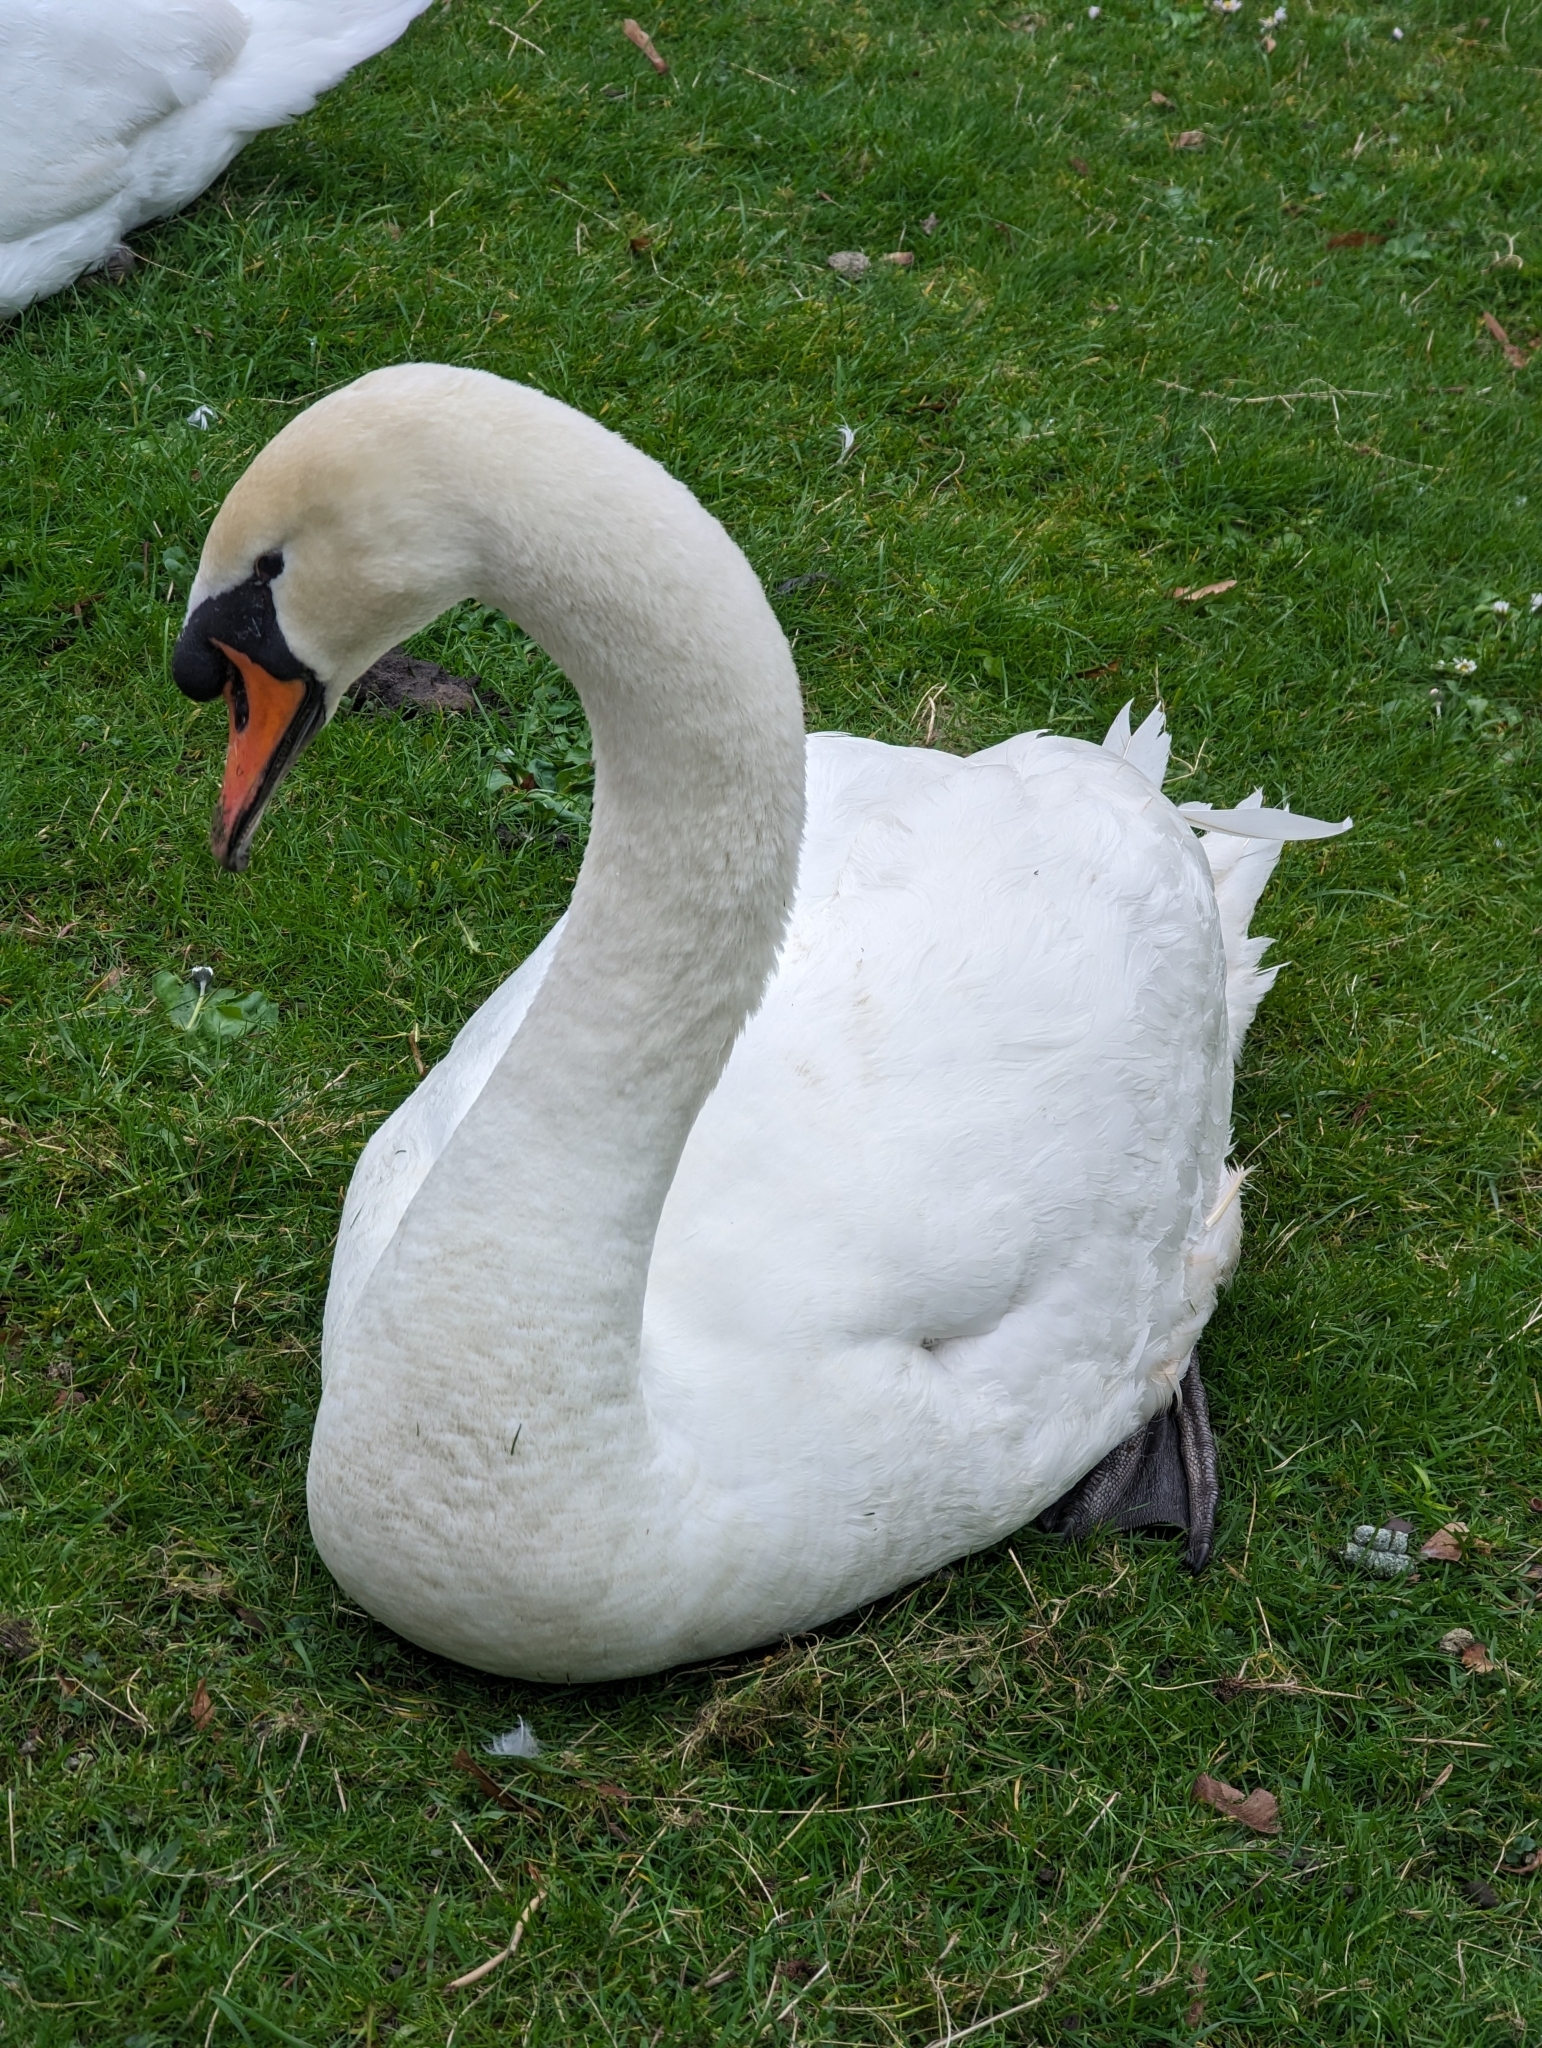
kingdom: Animalia
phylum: Chordata
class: Aves
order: Anseriformes
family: Anatidae
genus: Cygnus
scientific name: Cygnus olor
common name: Mute swan
